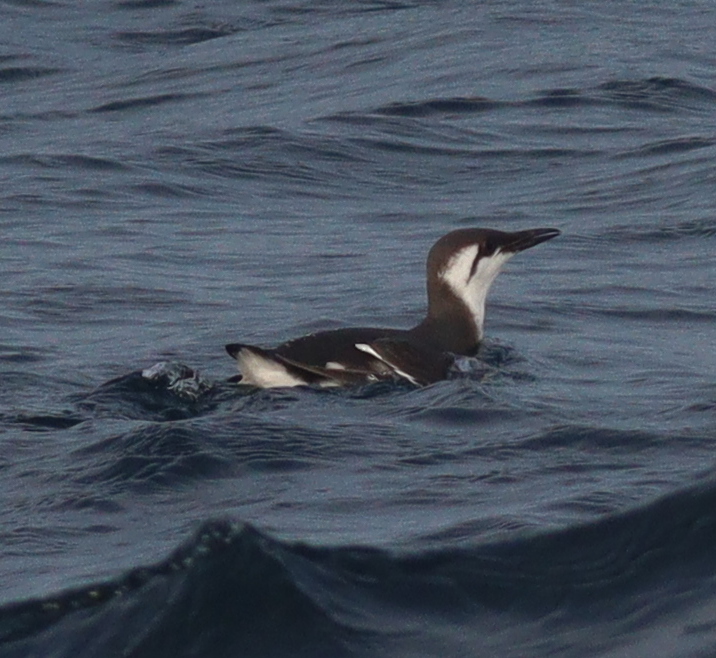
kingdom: Animalia
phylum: Chordata
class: Aves
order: Charadriiformes
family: Alcidae
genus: Uria
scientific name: Uria aalge
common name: Common murre
